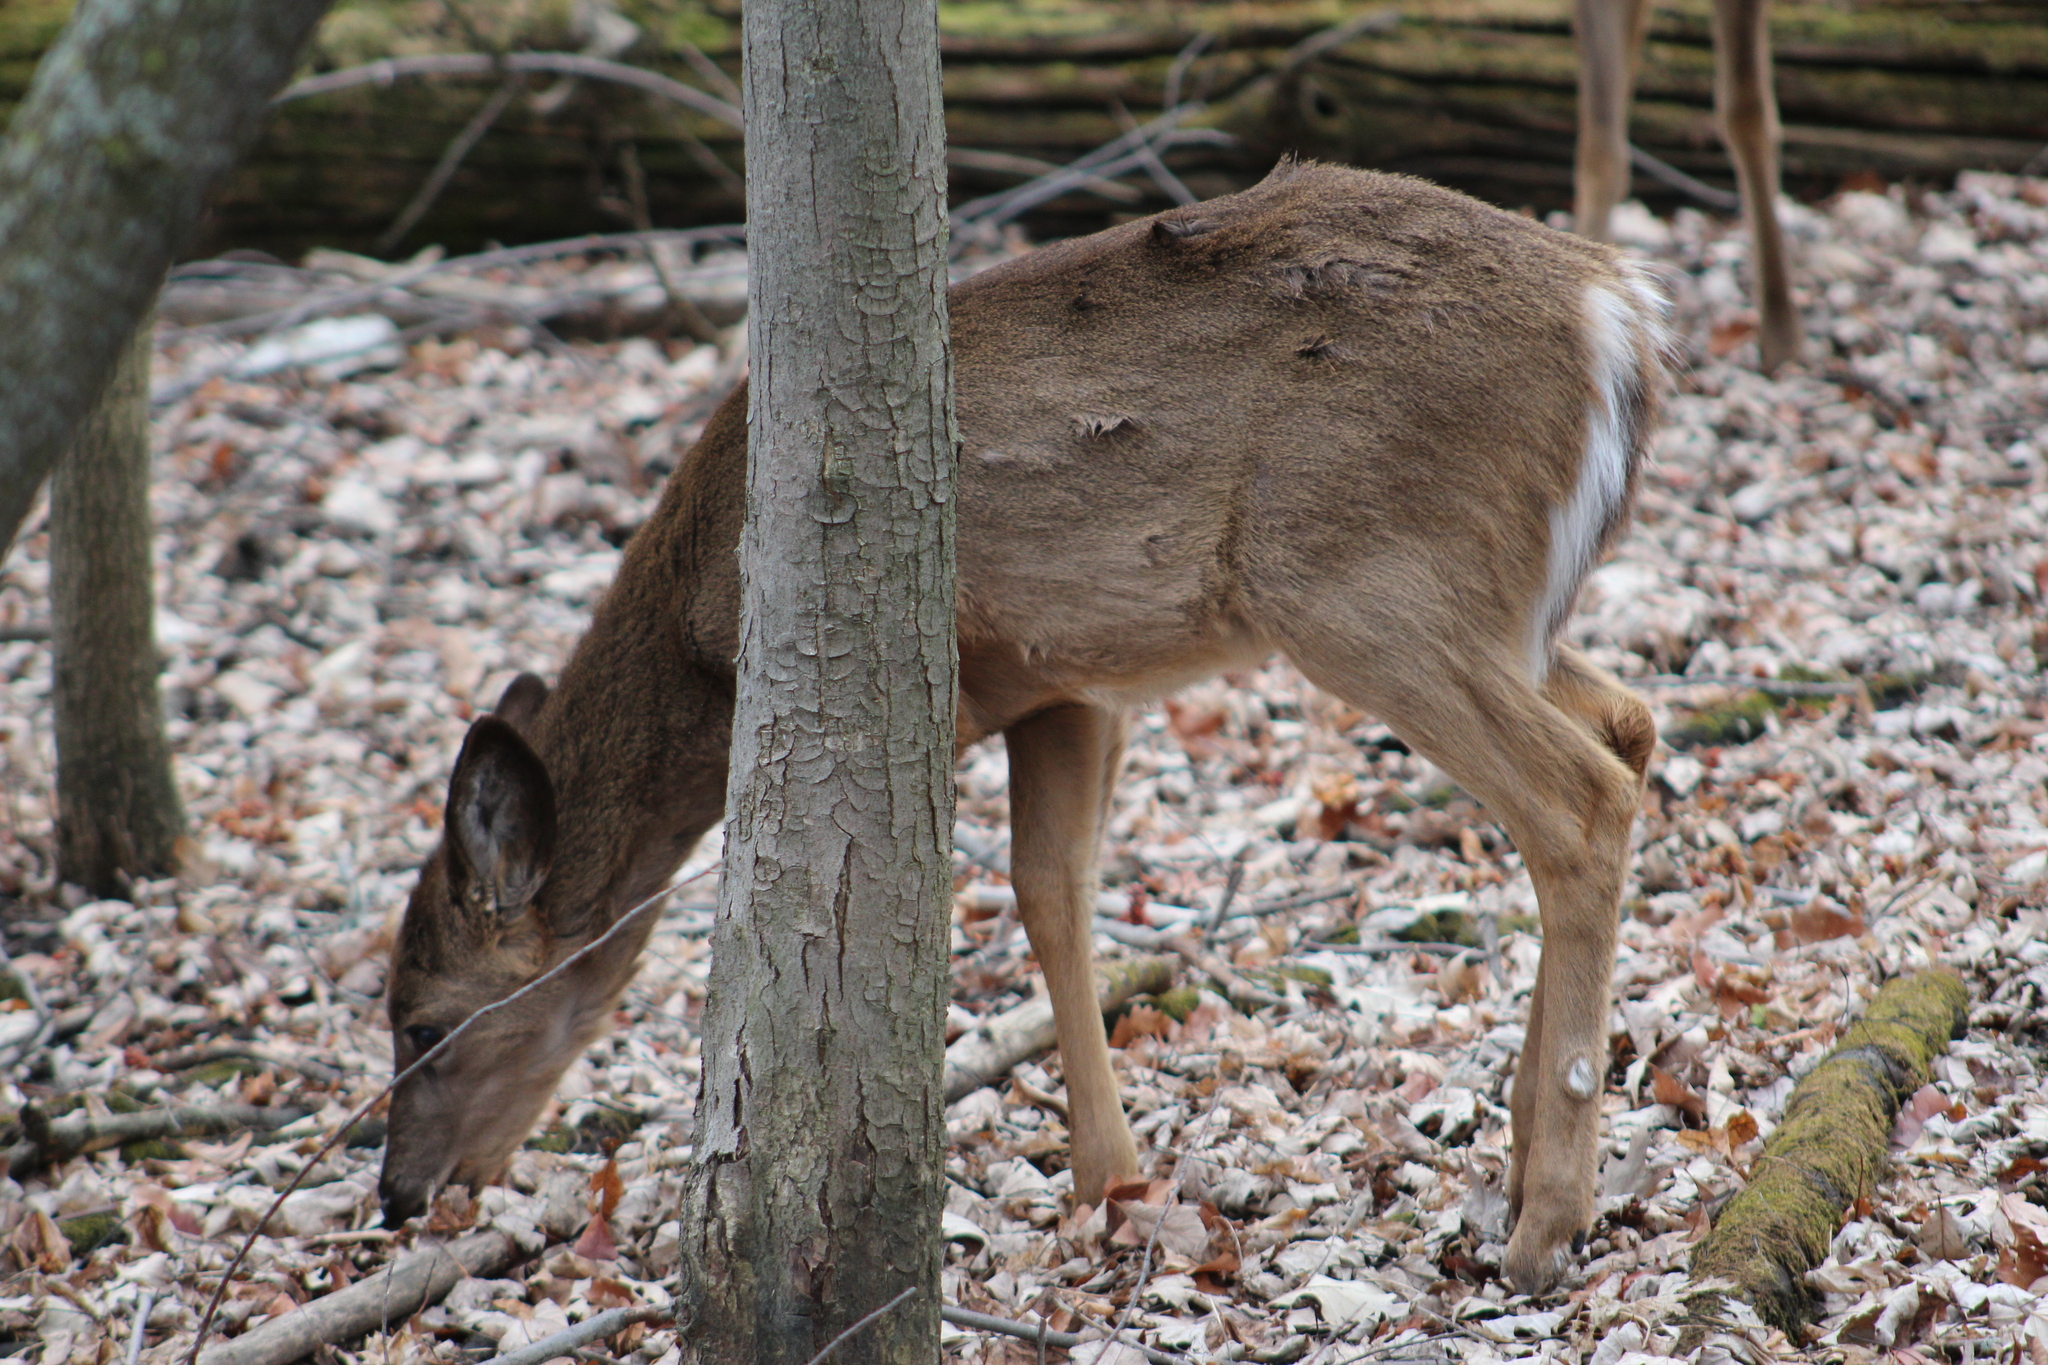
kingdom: Animalia
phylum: Chordata
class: Mammalia
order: Artiodactyla
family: Cervidae
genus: Odocoileus
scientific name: Odocoileus virginianus
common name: White-tailed deer
